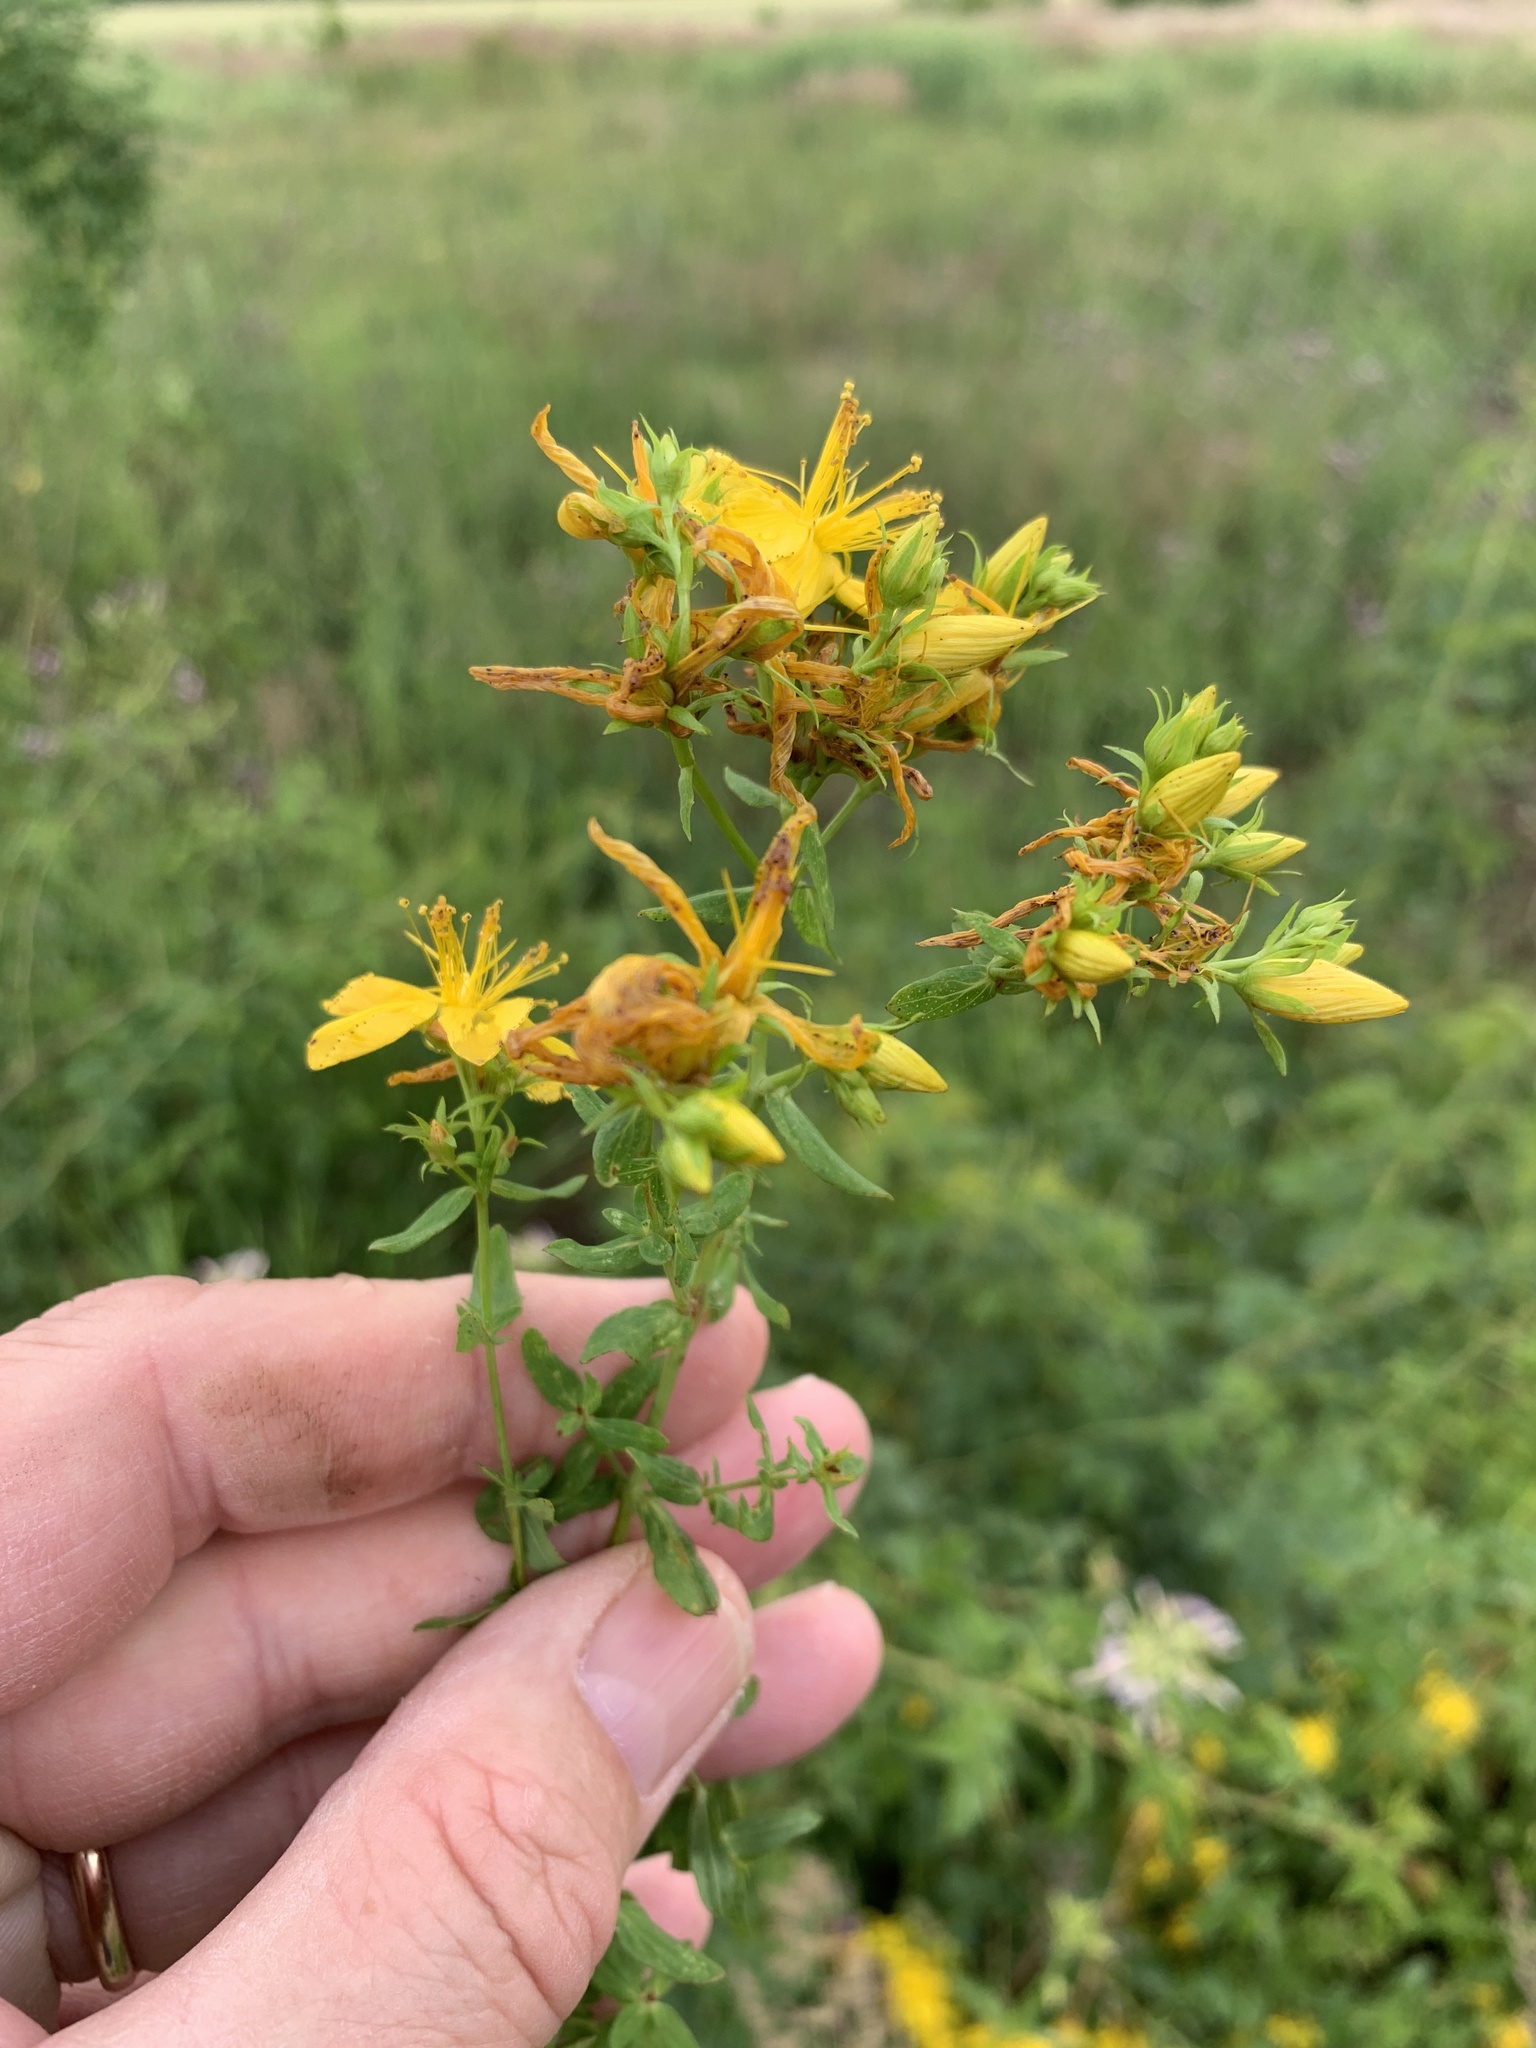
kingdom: Plantae
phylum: Tracheophyta
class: Magnoliopsida
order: Malpighiales
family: Hypericaceae
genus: Hypericum
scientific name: Hypericum perforatum
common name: Common st. johnswort
